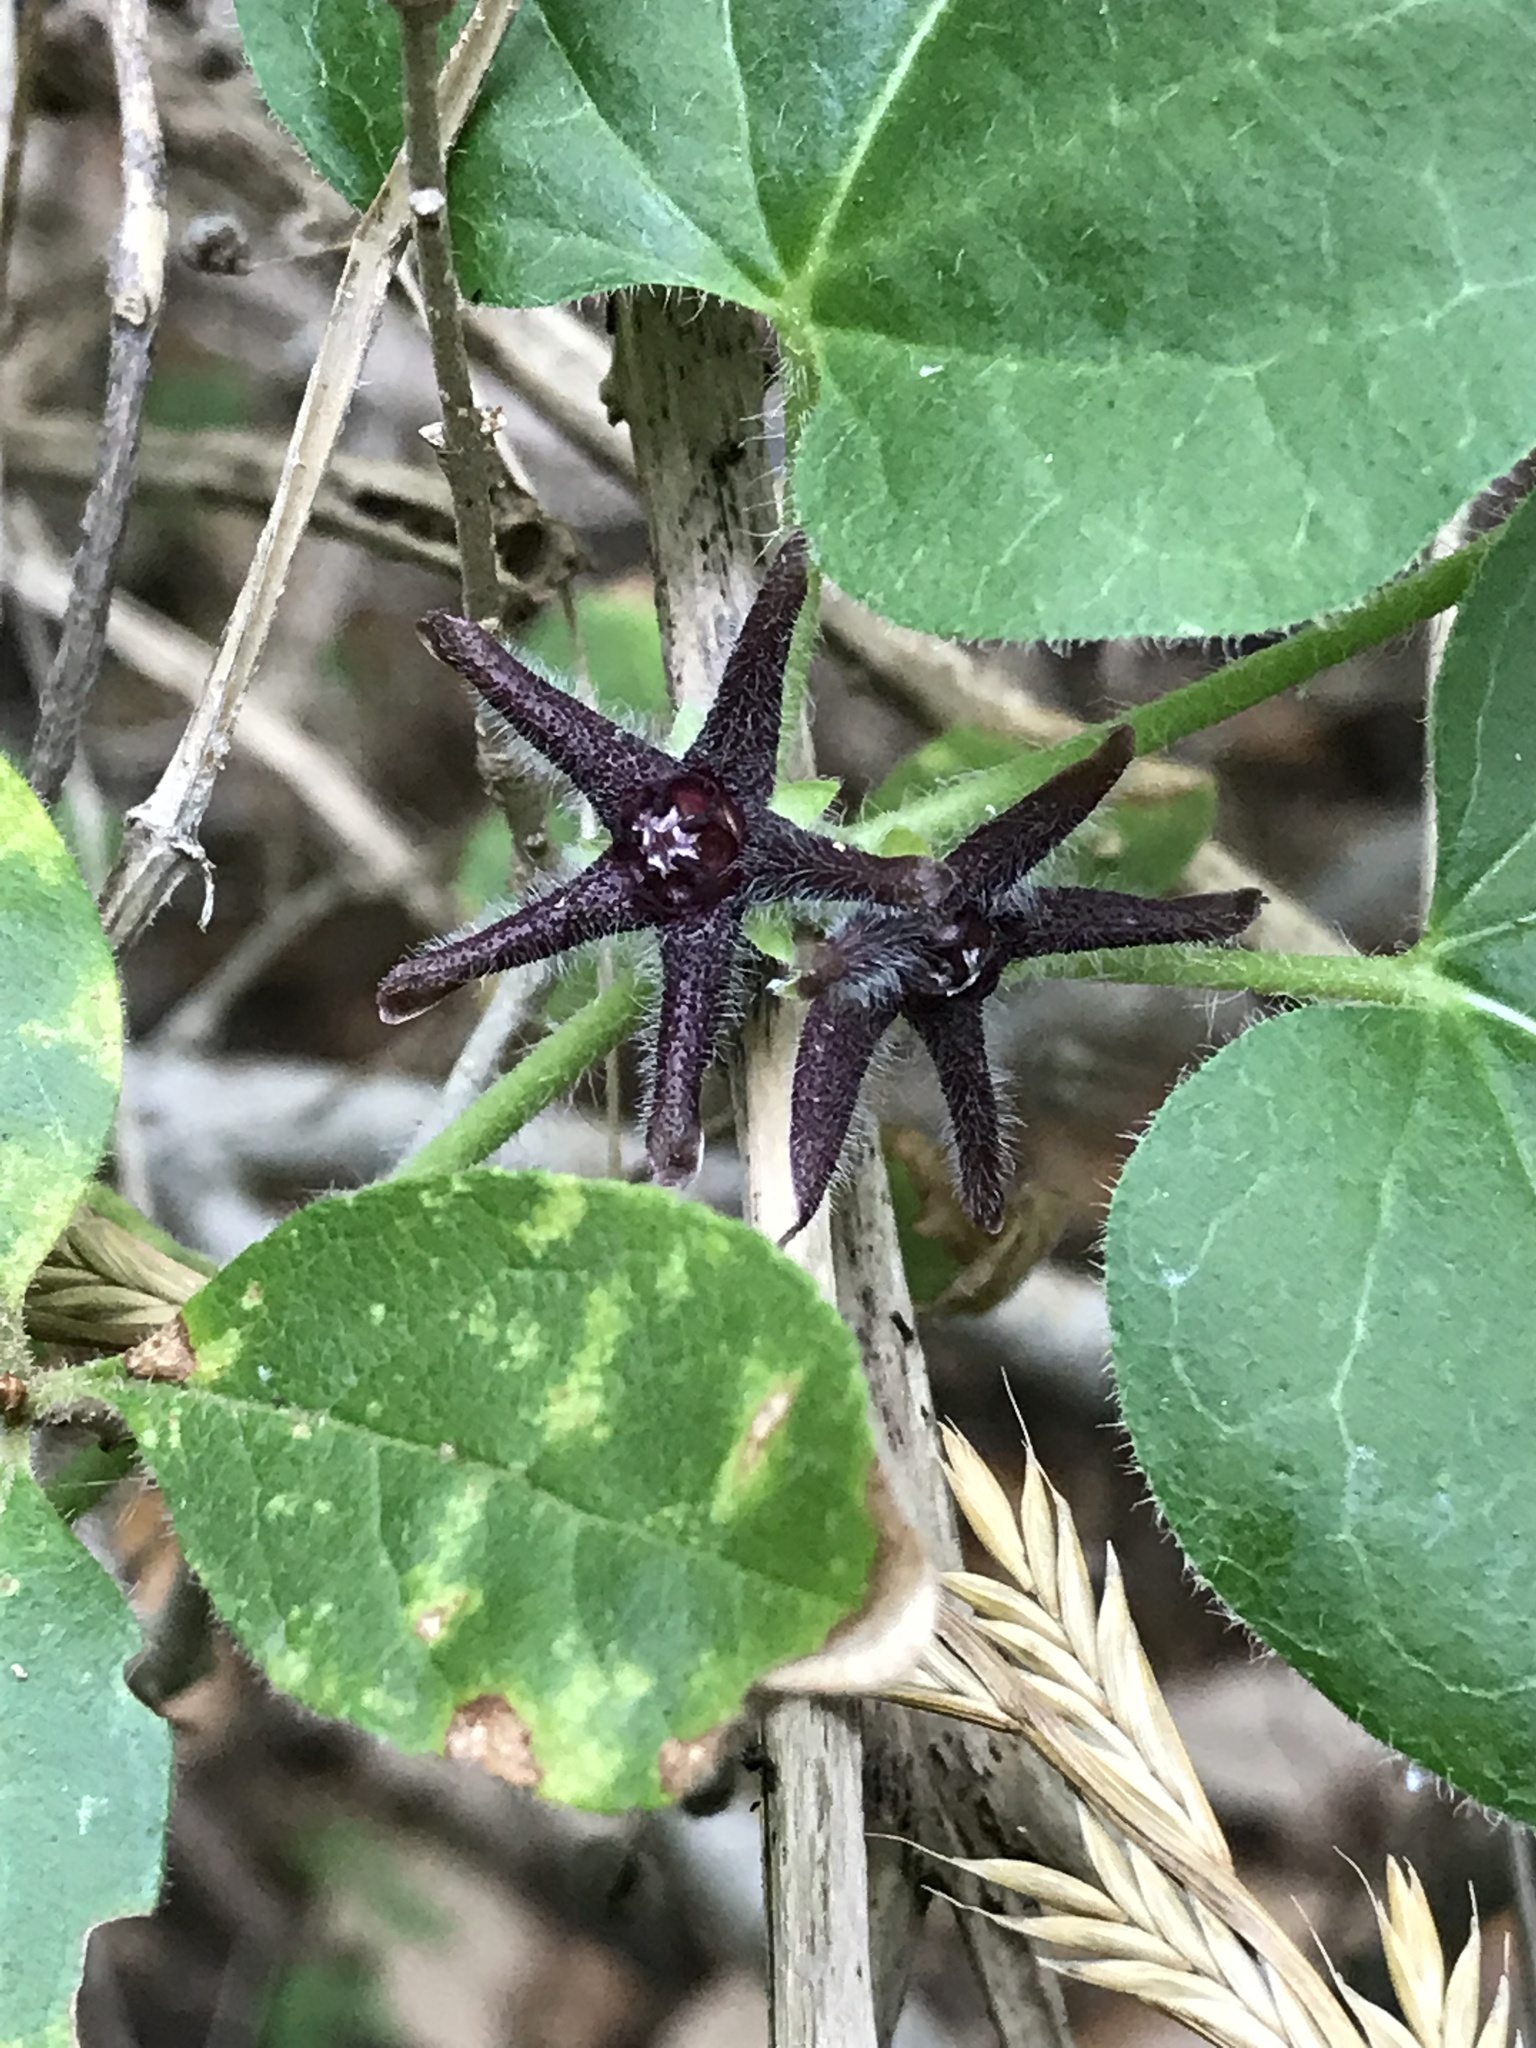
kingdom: Plantae
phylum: Tracheophyta
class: Magnoliopsida
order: Gentianales
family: Apocynaceae
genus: Chthamalia
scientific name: Chthamalia biflora
